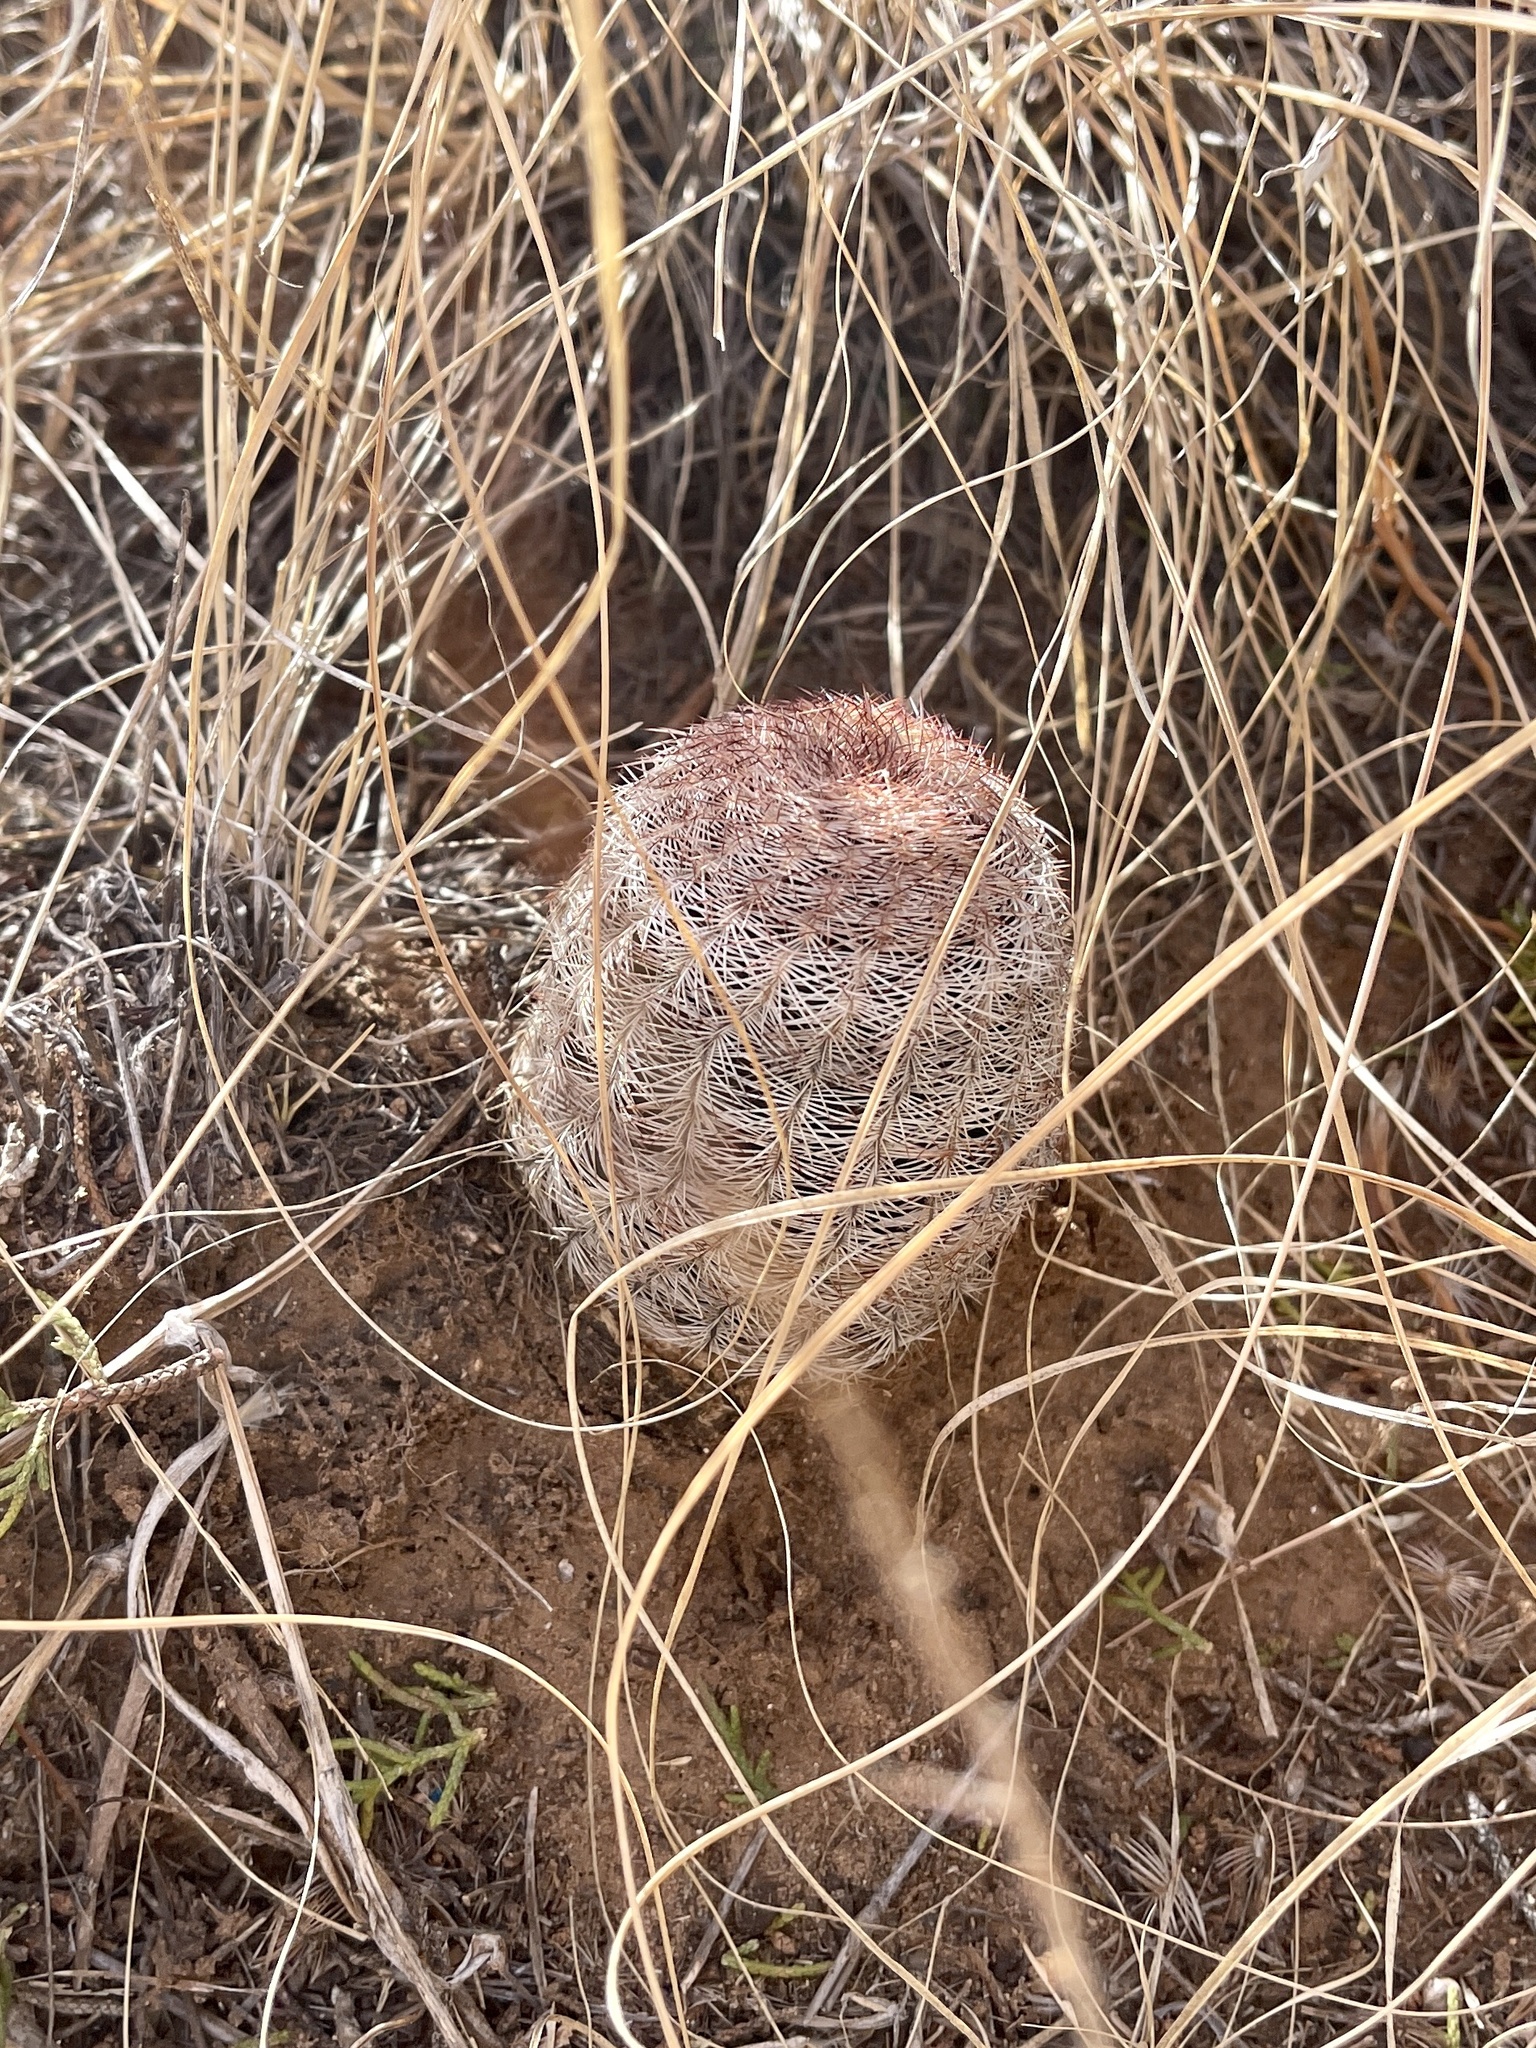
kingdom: Plantae
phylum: Tracheophyta
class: Magnoliopsida
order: Caryophyllales
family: Cactaceae
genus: Echinocereus
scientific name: Echinocereus reichenbachii
